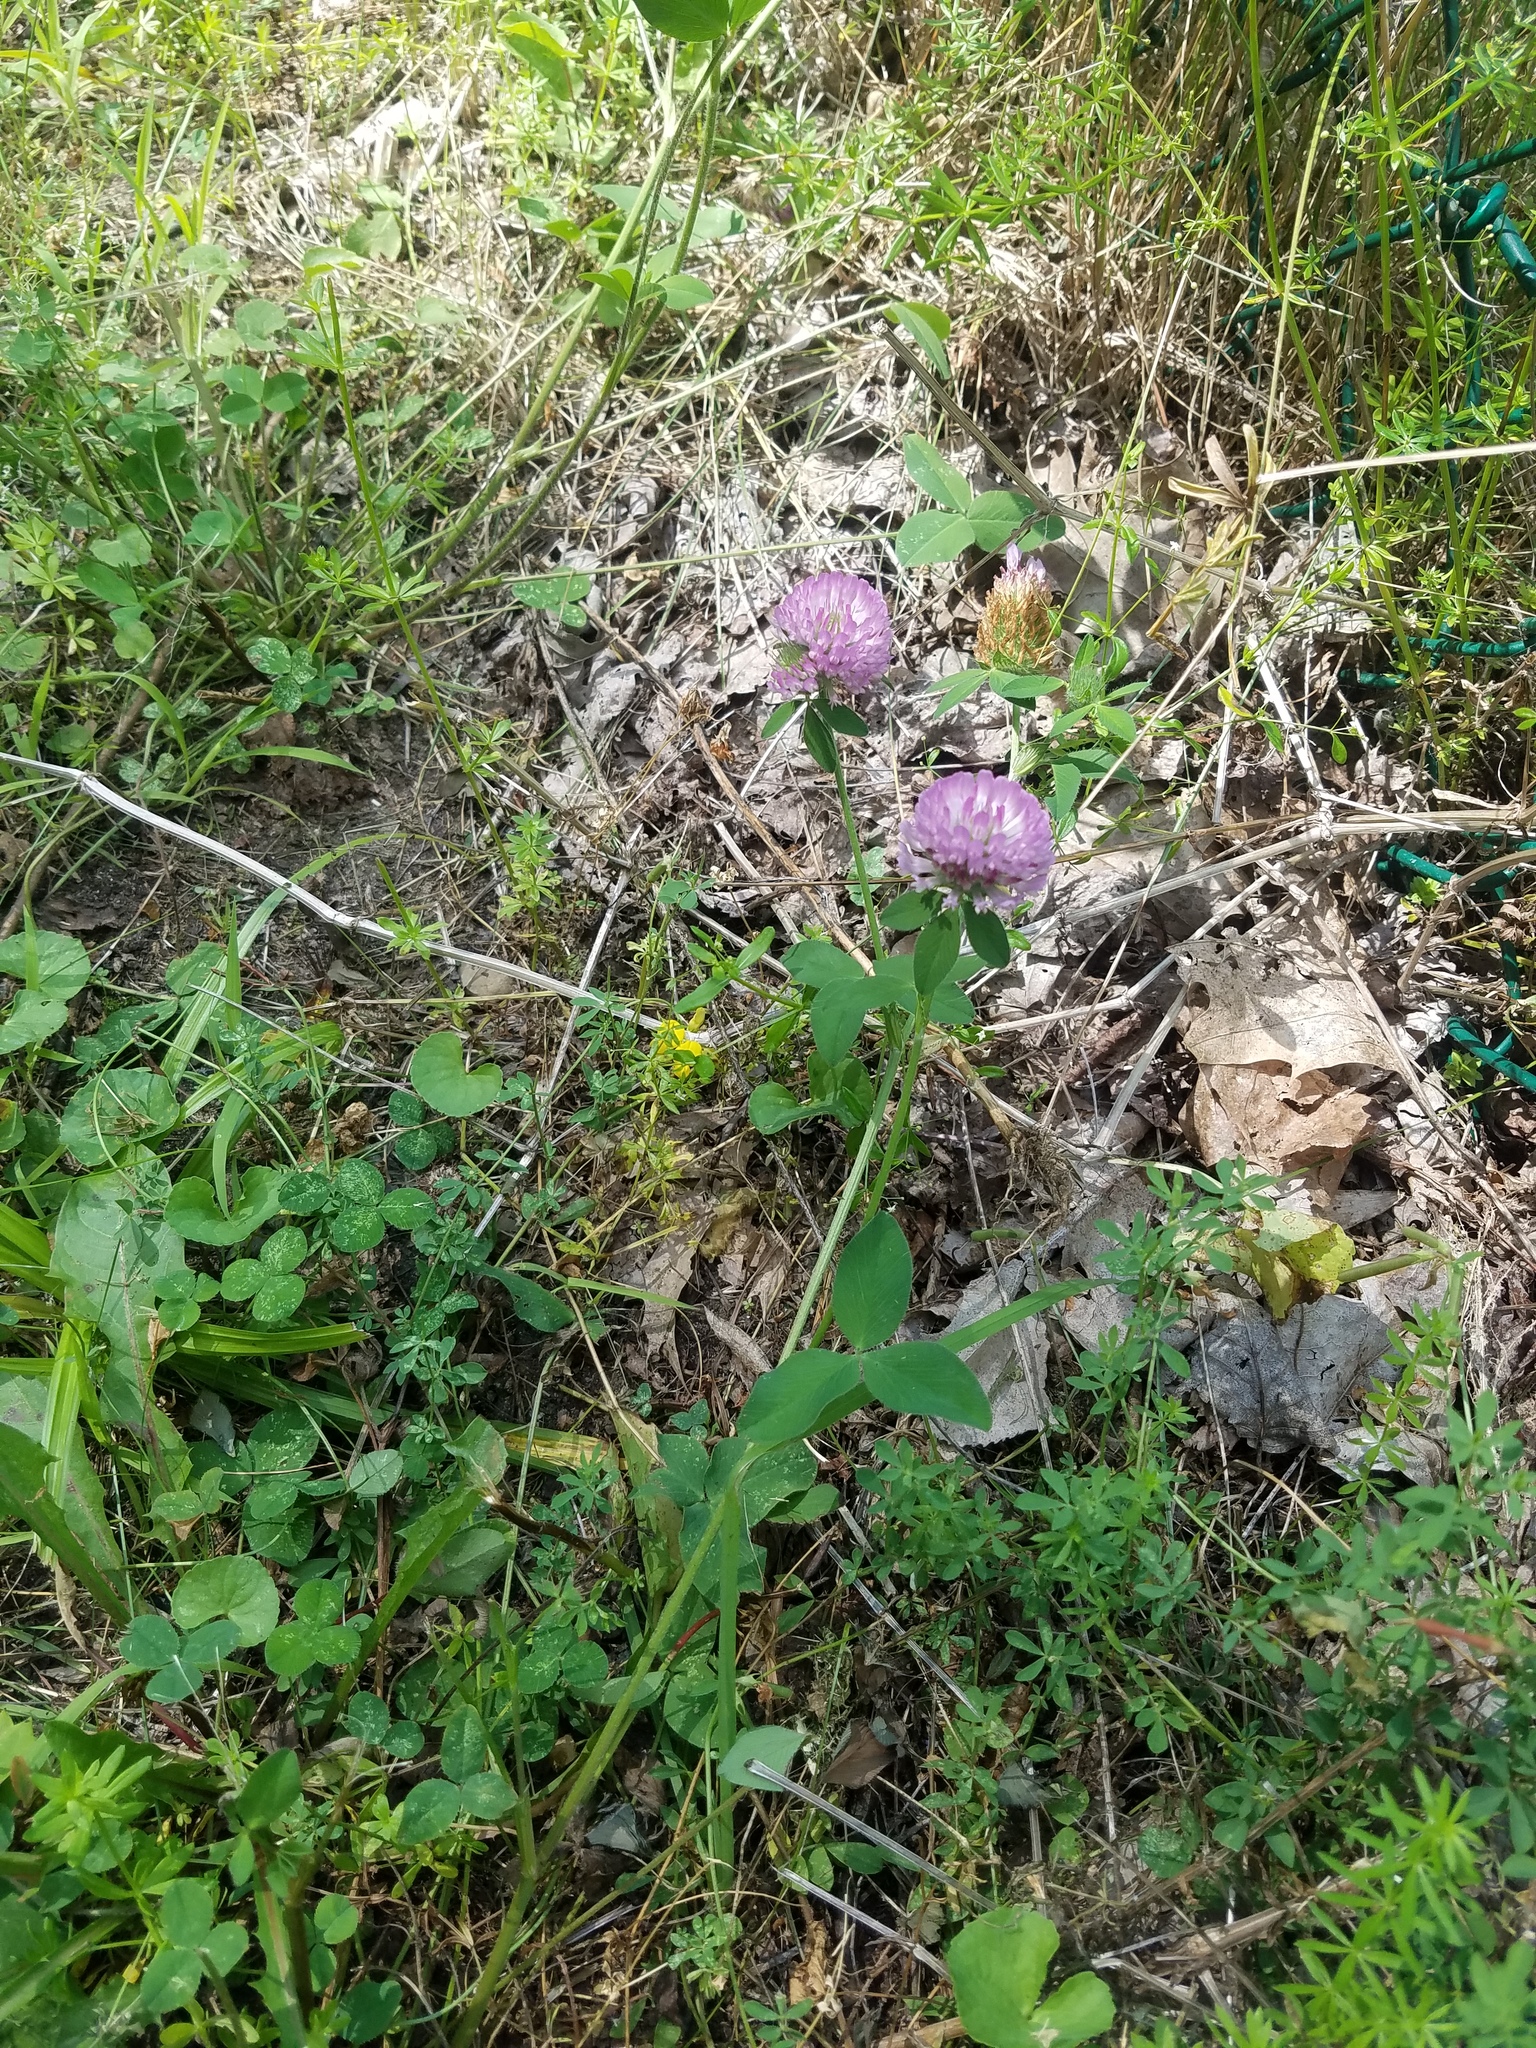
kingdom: Plantae
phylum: Tracheophyta
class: Magnoliopsida
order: Fabales
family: Fabaceae
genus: Trifolium
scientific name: Trifolium pratense
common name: Red clover
